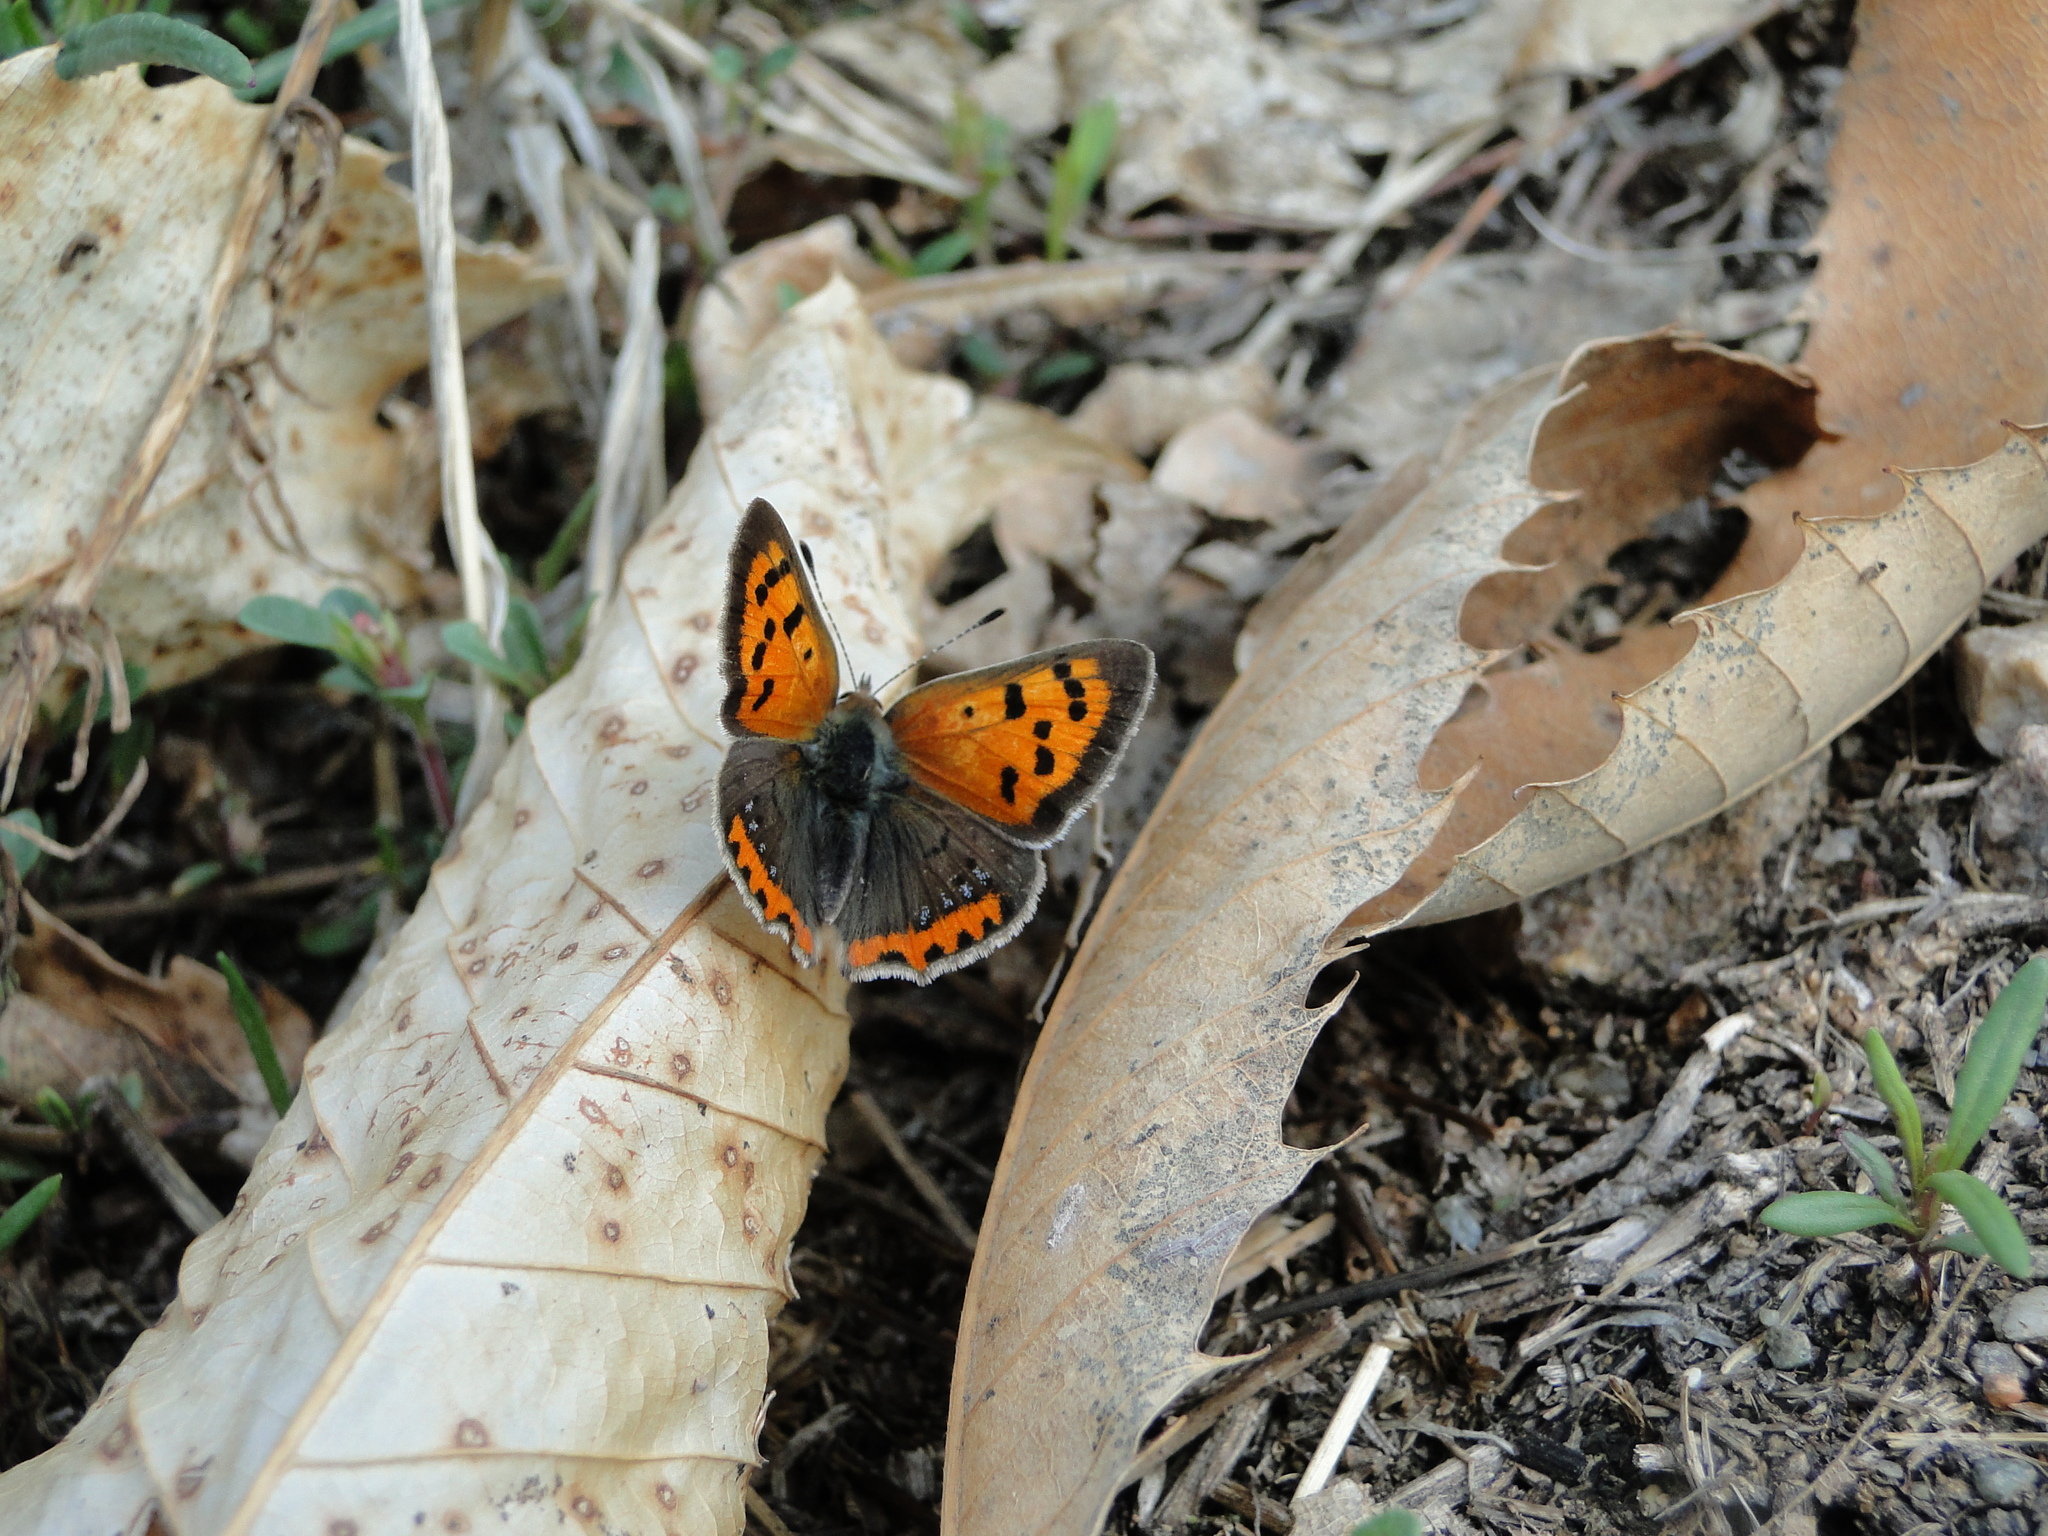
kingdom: Animalia
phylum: Arthropoda
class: Insecta
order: Lepidoptera
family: Lycaenidae
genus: Lycaena
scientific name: Lycaena phlaeas
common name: Small copper
